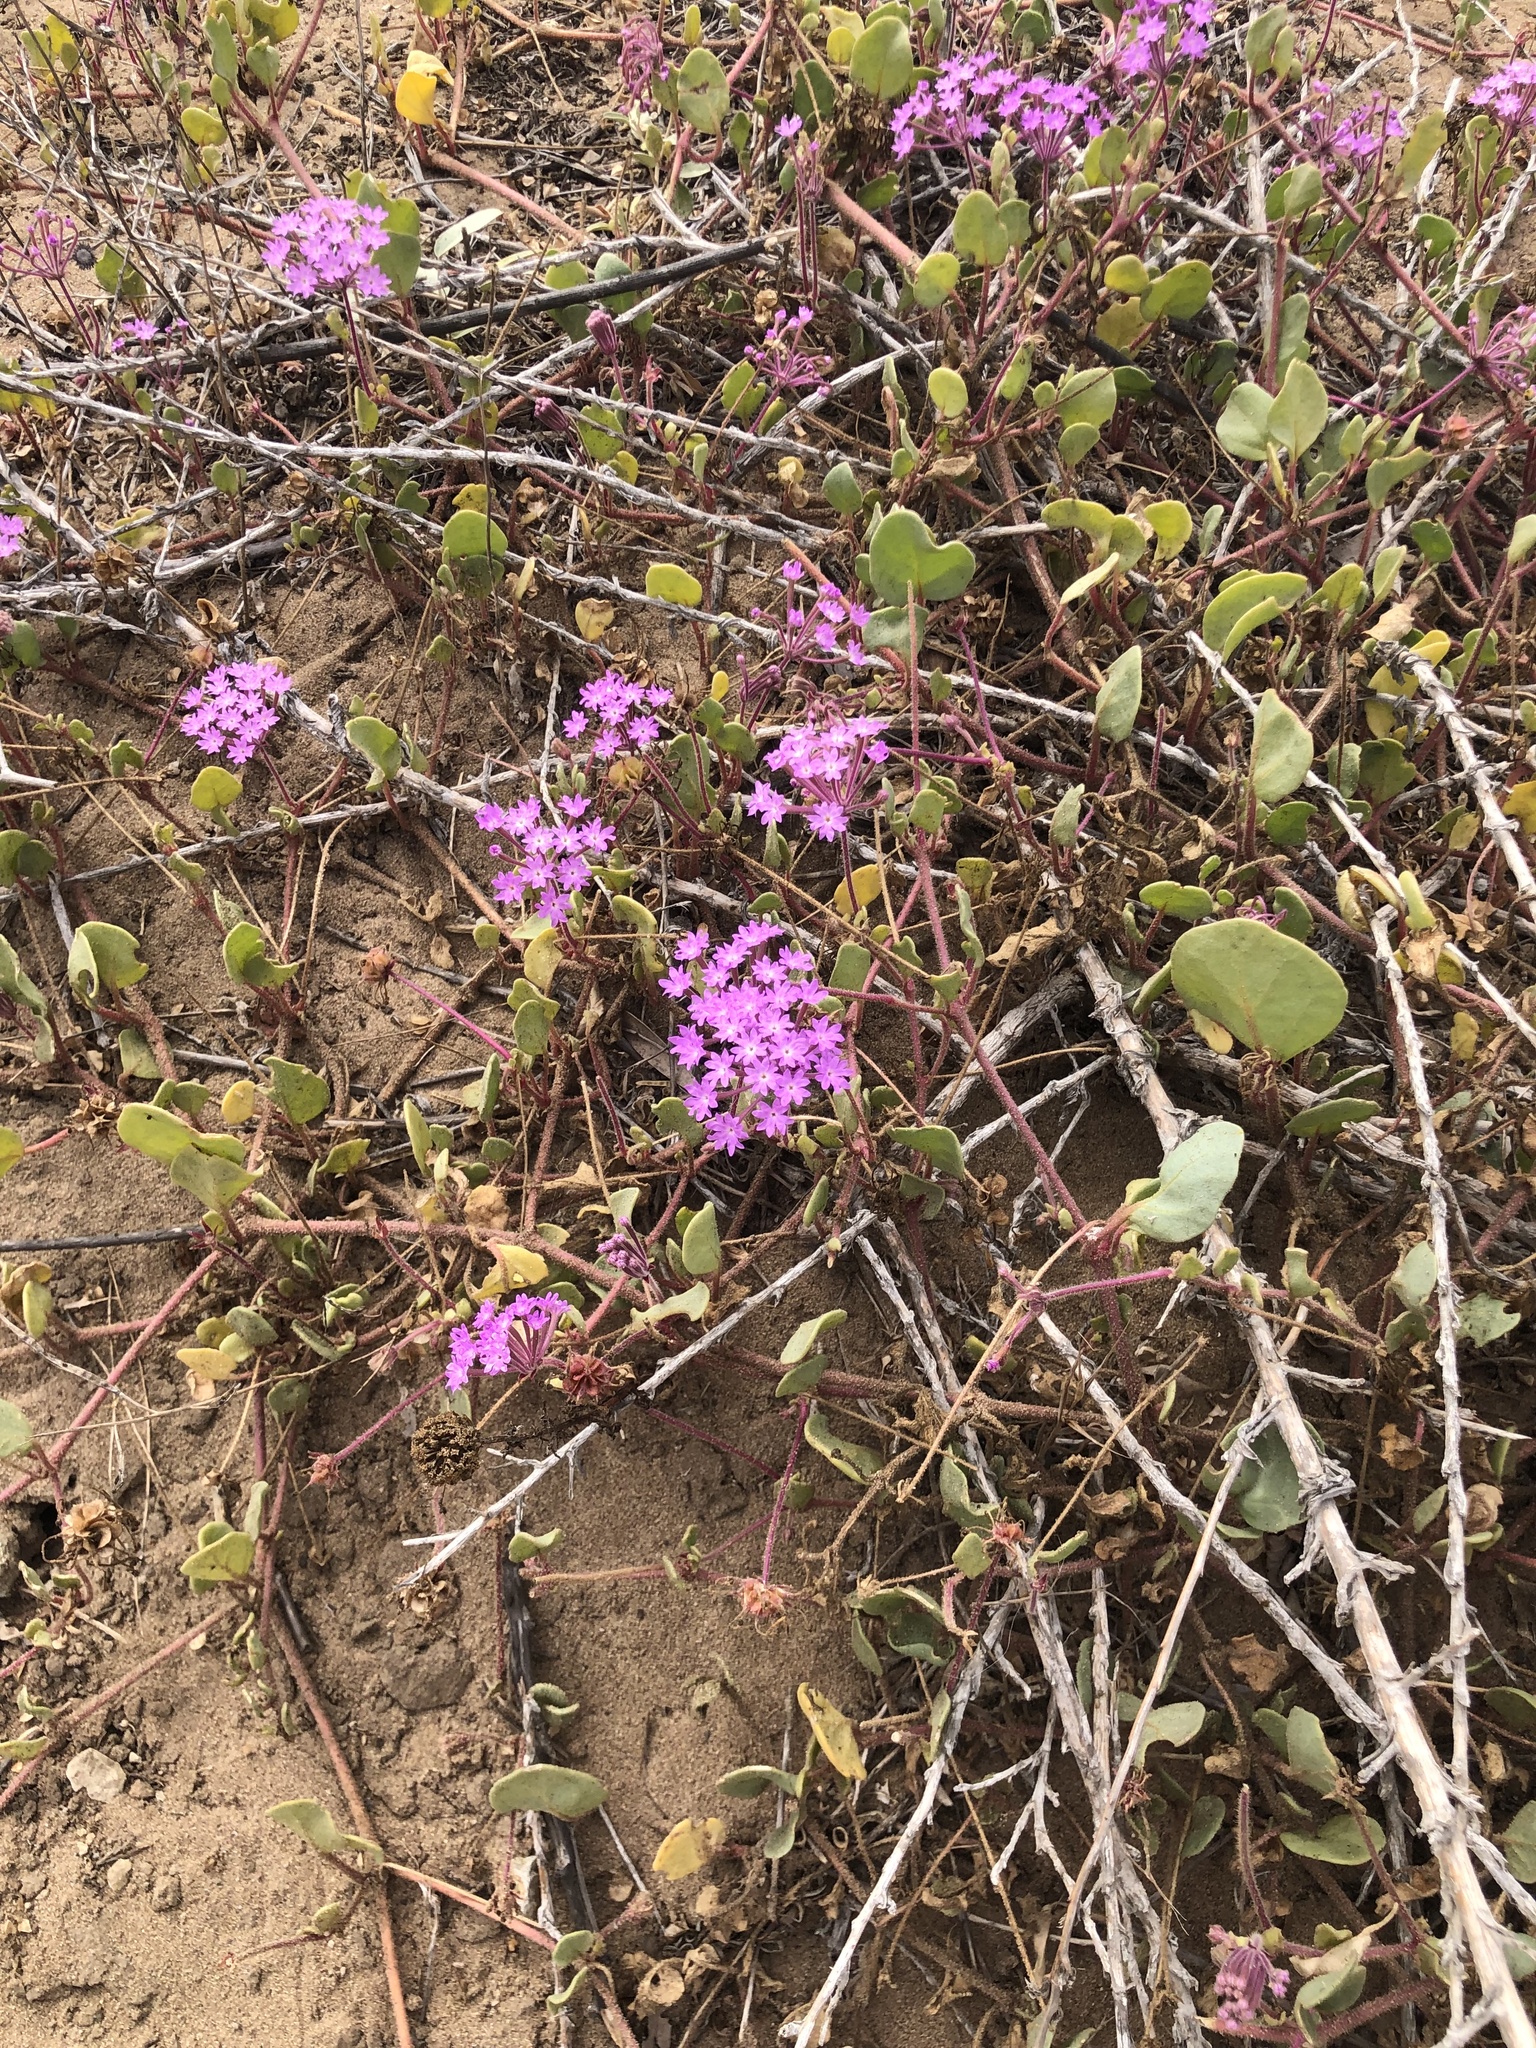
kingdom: Plantae
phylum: Tracheophyta
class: Magnoliopsida
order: Caryophyllales
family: Nyctaginaceae
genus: Abronia
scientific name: Abronia umbellata
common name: Sand-verbena
